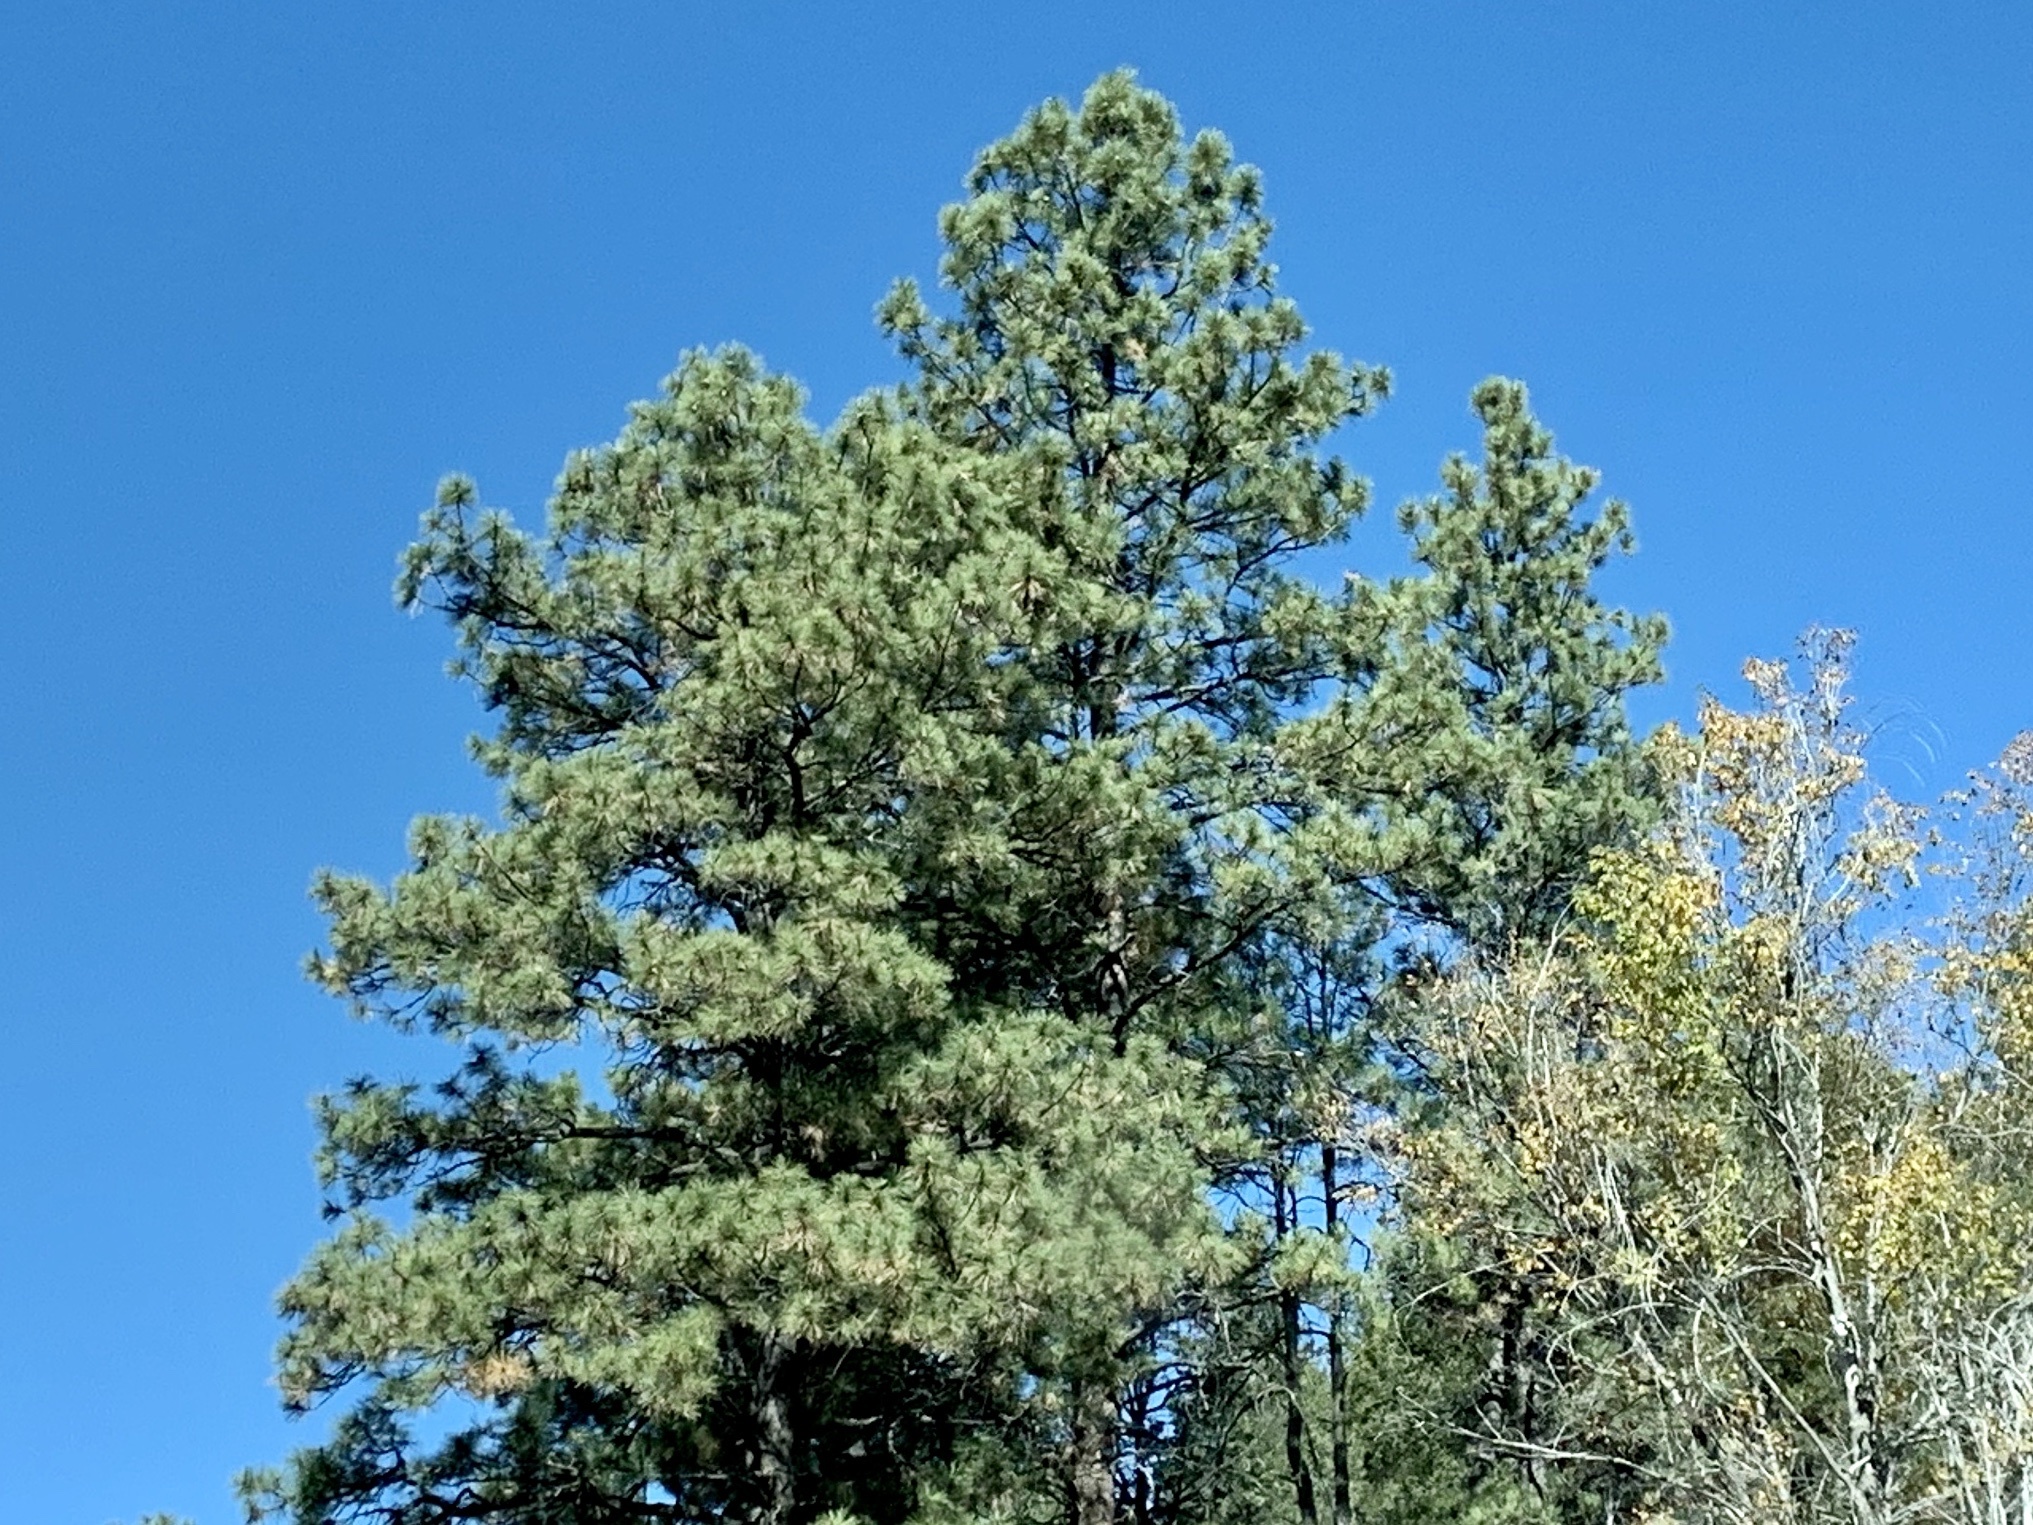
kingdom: Plantae
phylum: Tracheophyta
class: Pinopsida
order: Pinales
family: Pinaceae
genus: Pinus
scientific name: Pinus ponderosa
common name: Western yellow-pine
